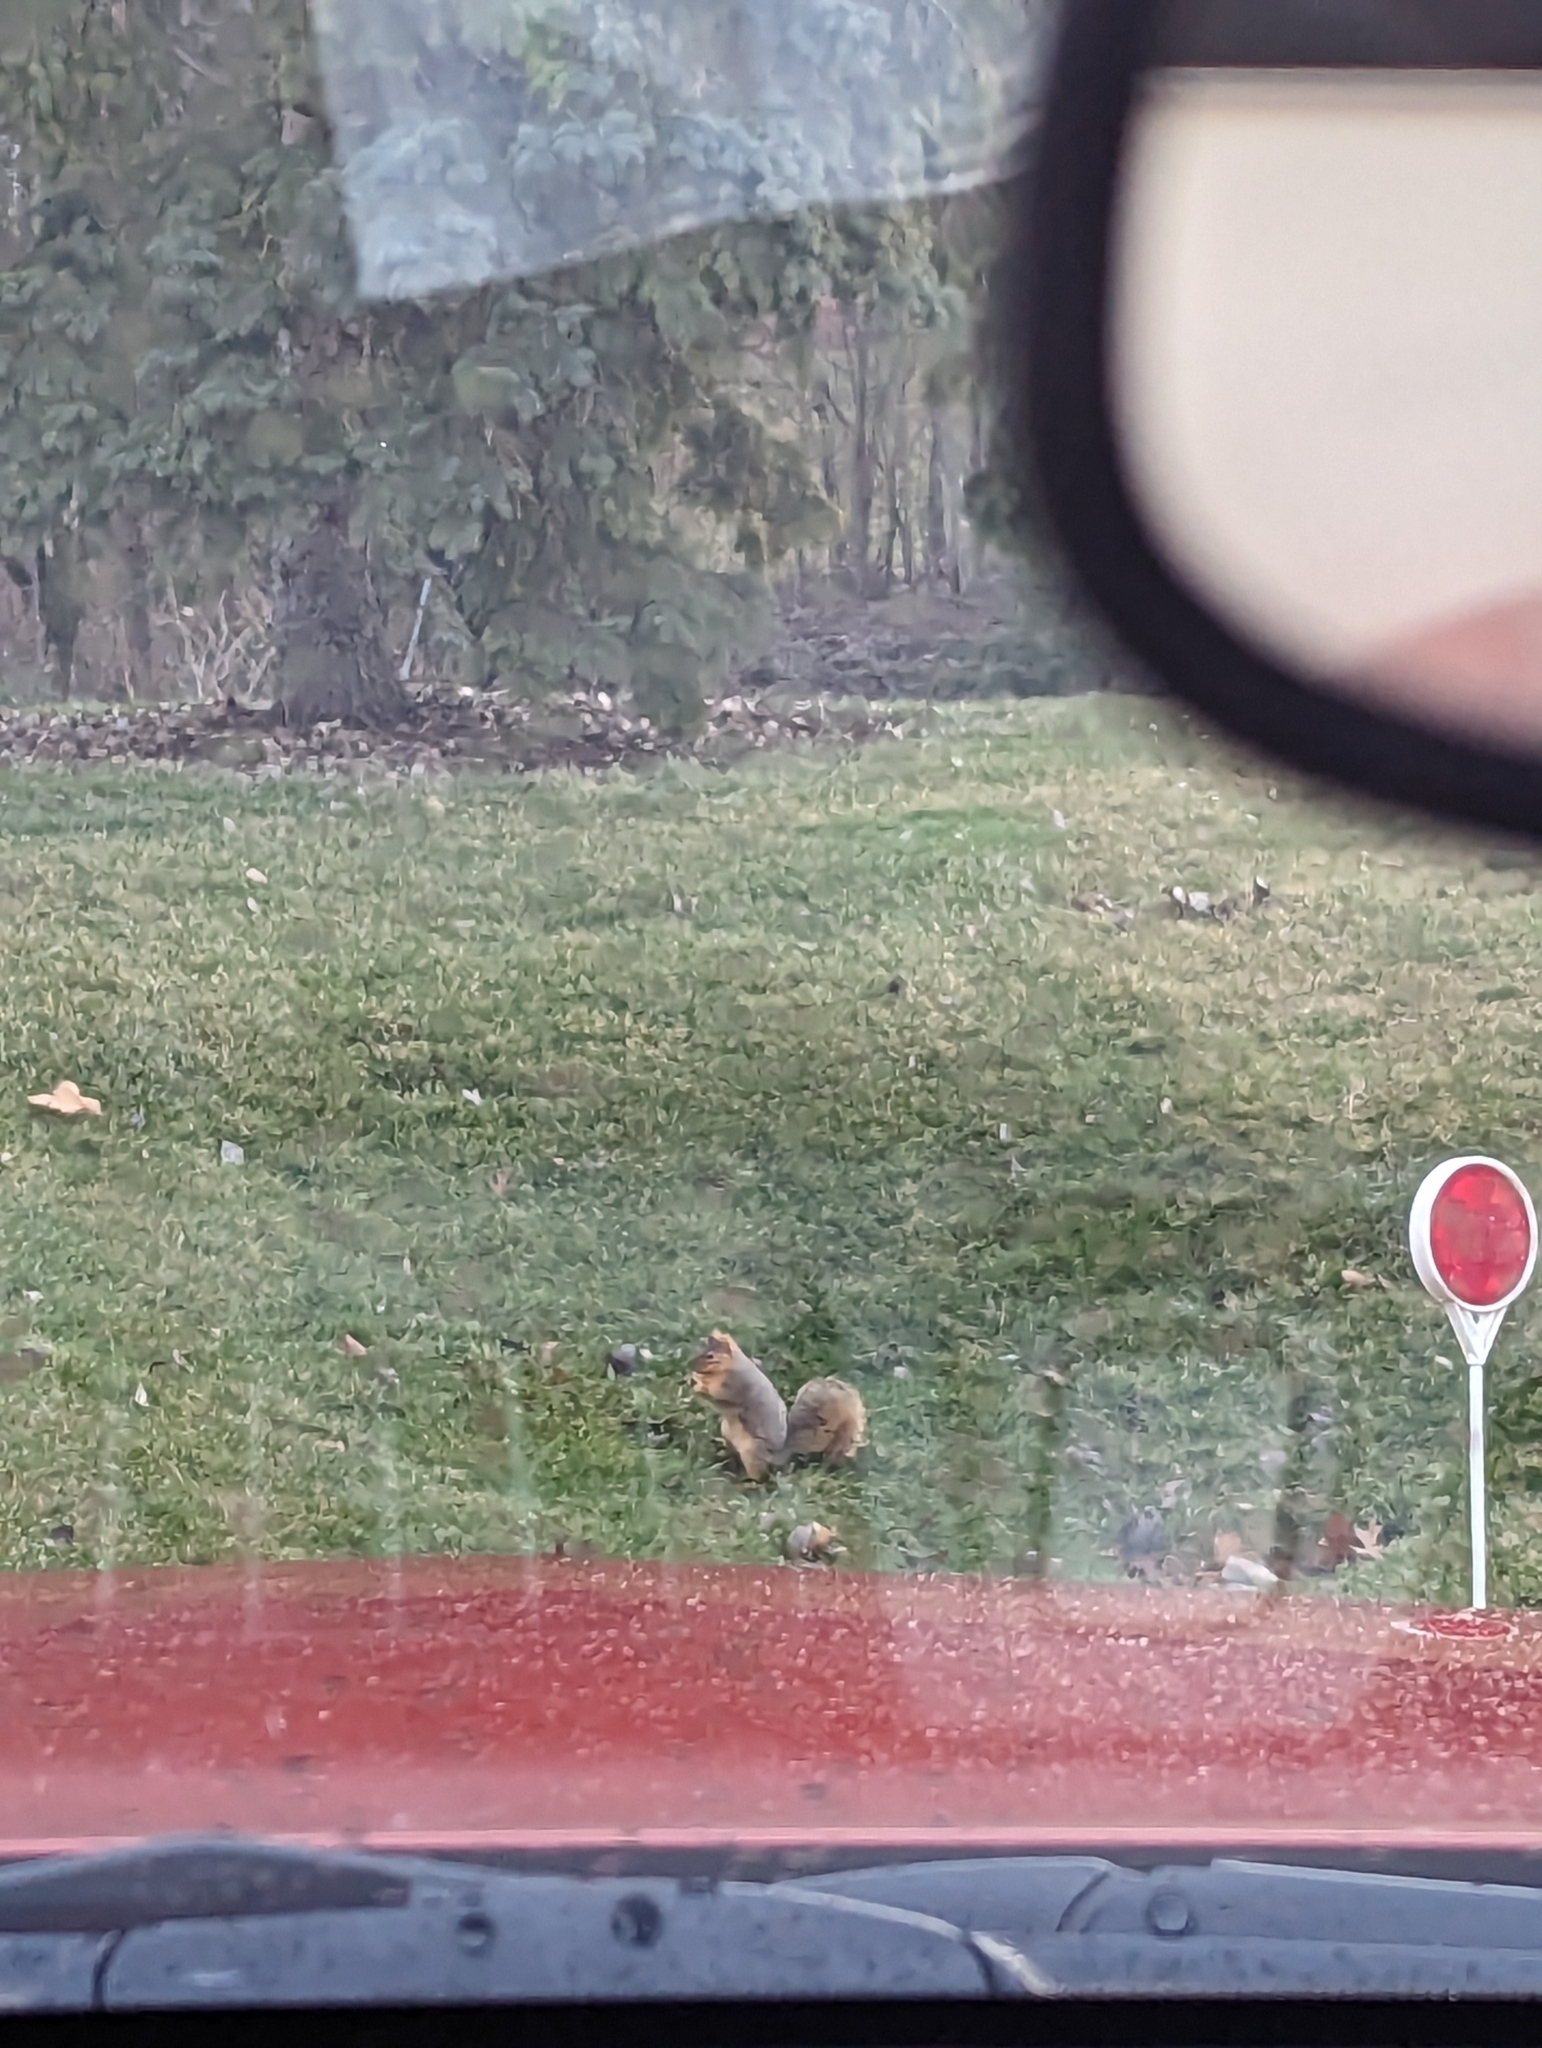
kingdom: Animalia
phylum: Chordata
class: Mammalia
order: Rodentia
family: Sciuridae
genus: Sciurus
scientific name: Sciurus niger
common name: Fox squirrel
